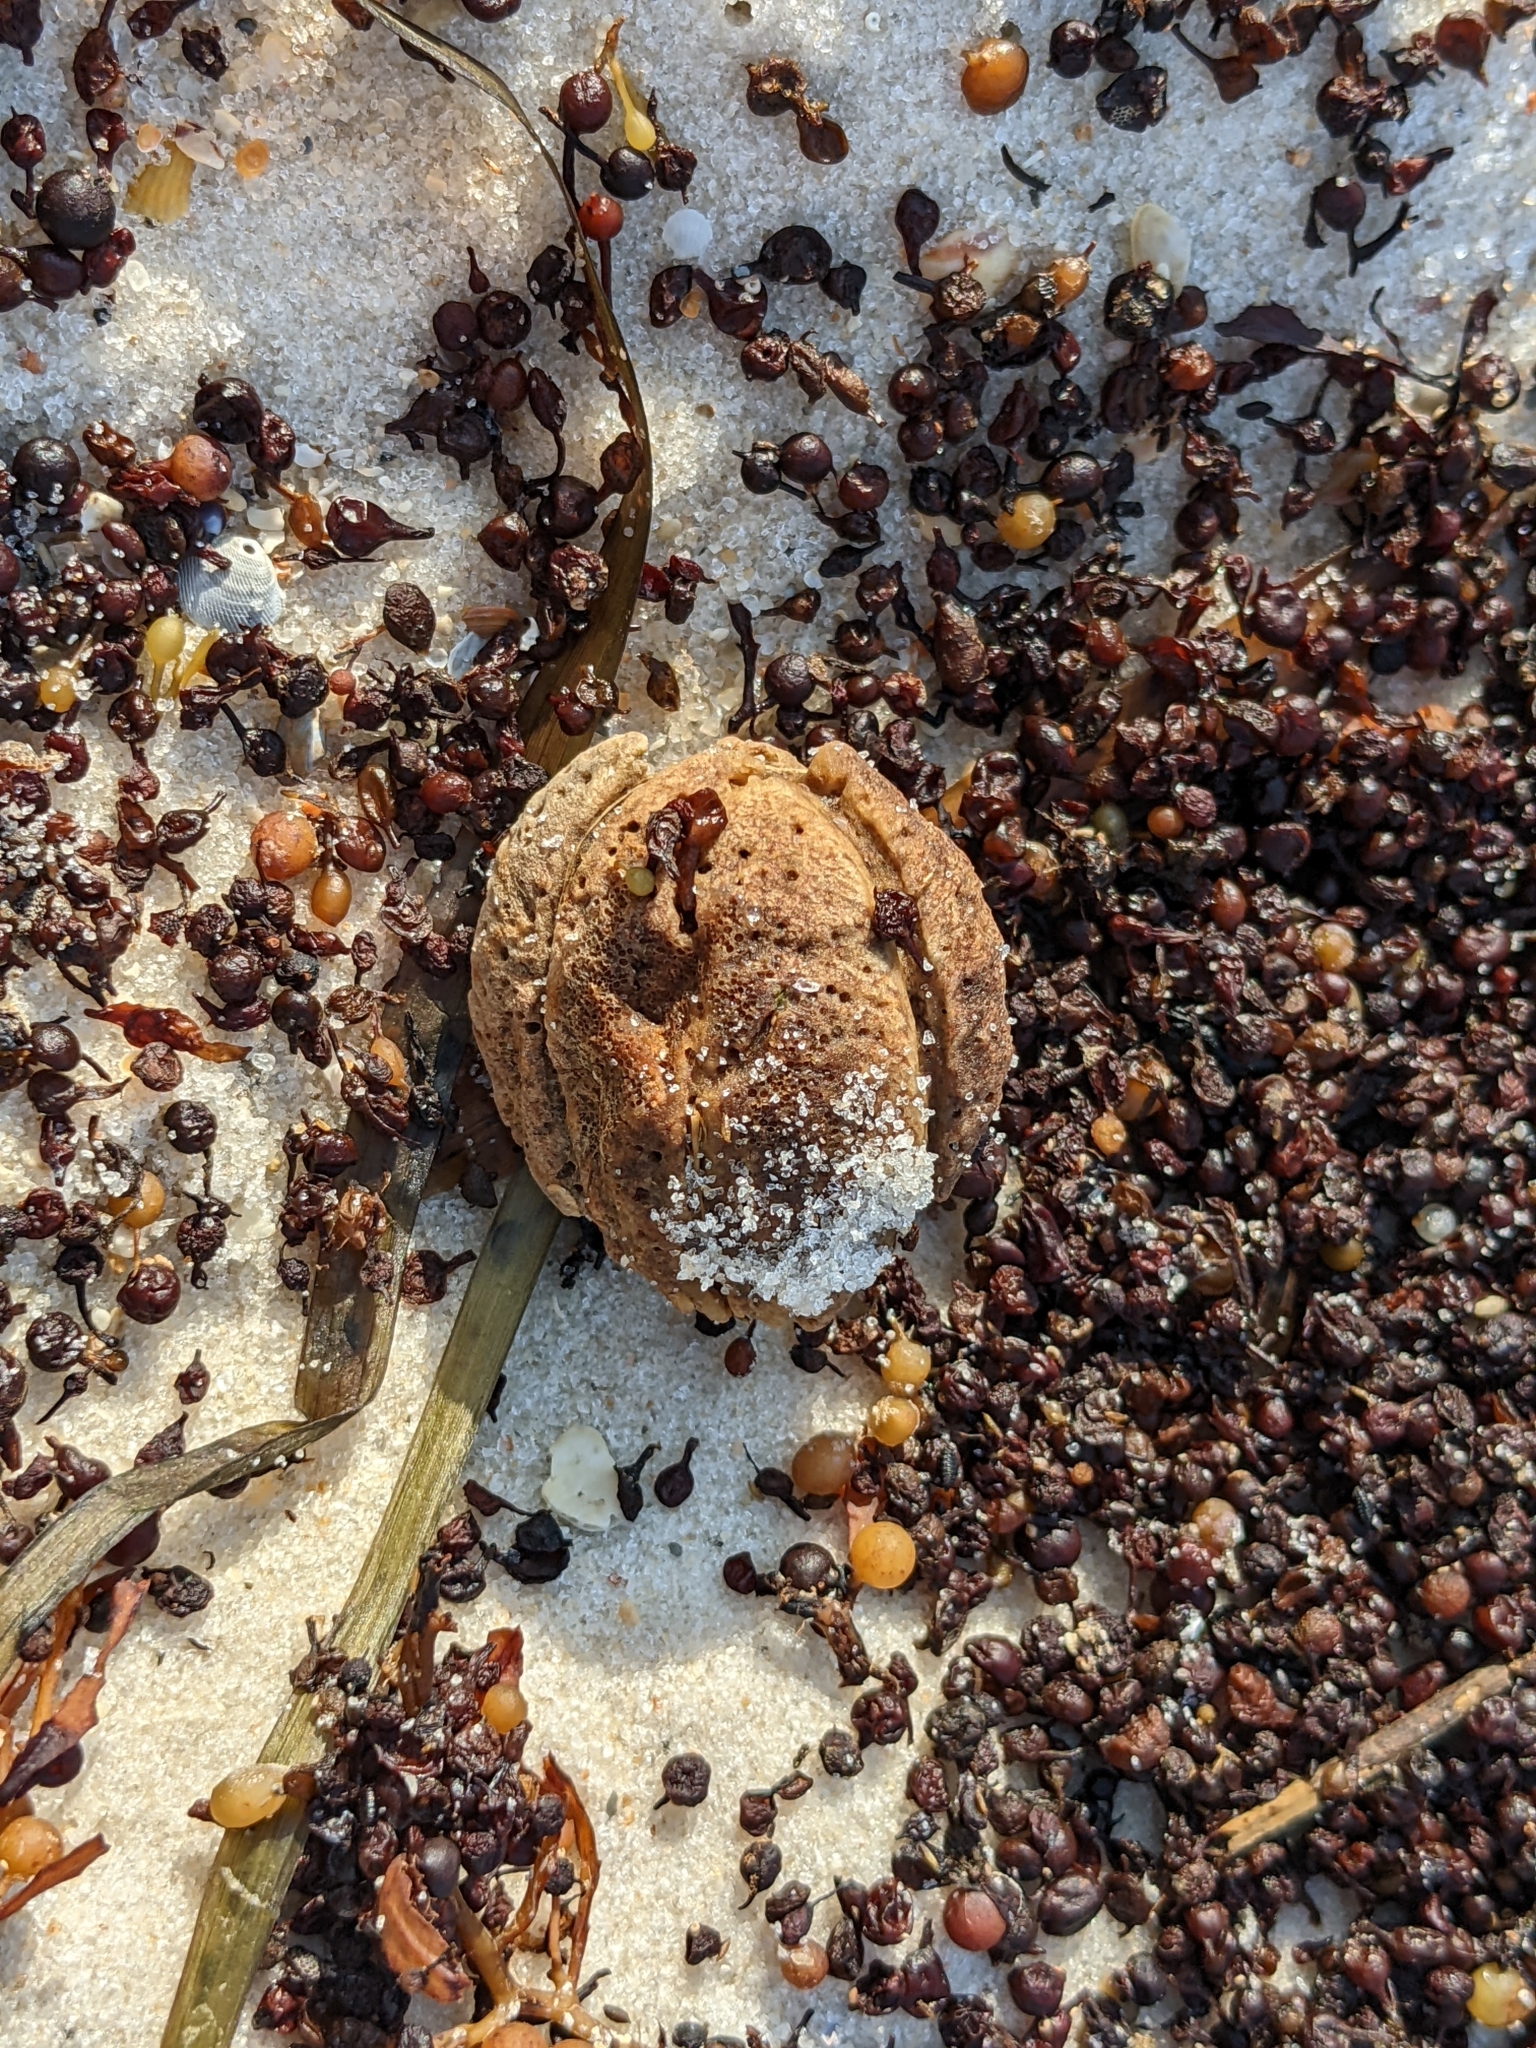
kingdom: Plantae
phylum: Tracheophyta
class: Magnoliopsida
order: Myrtales
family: Combretaceae
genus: Terminalia
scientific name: Terminalia catappa
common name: Tropical almond
